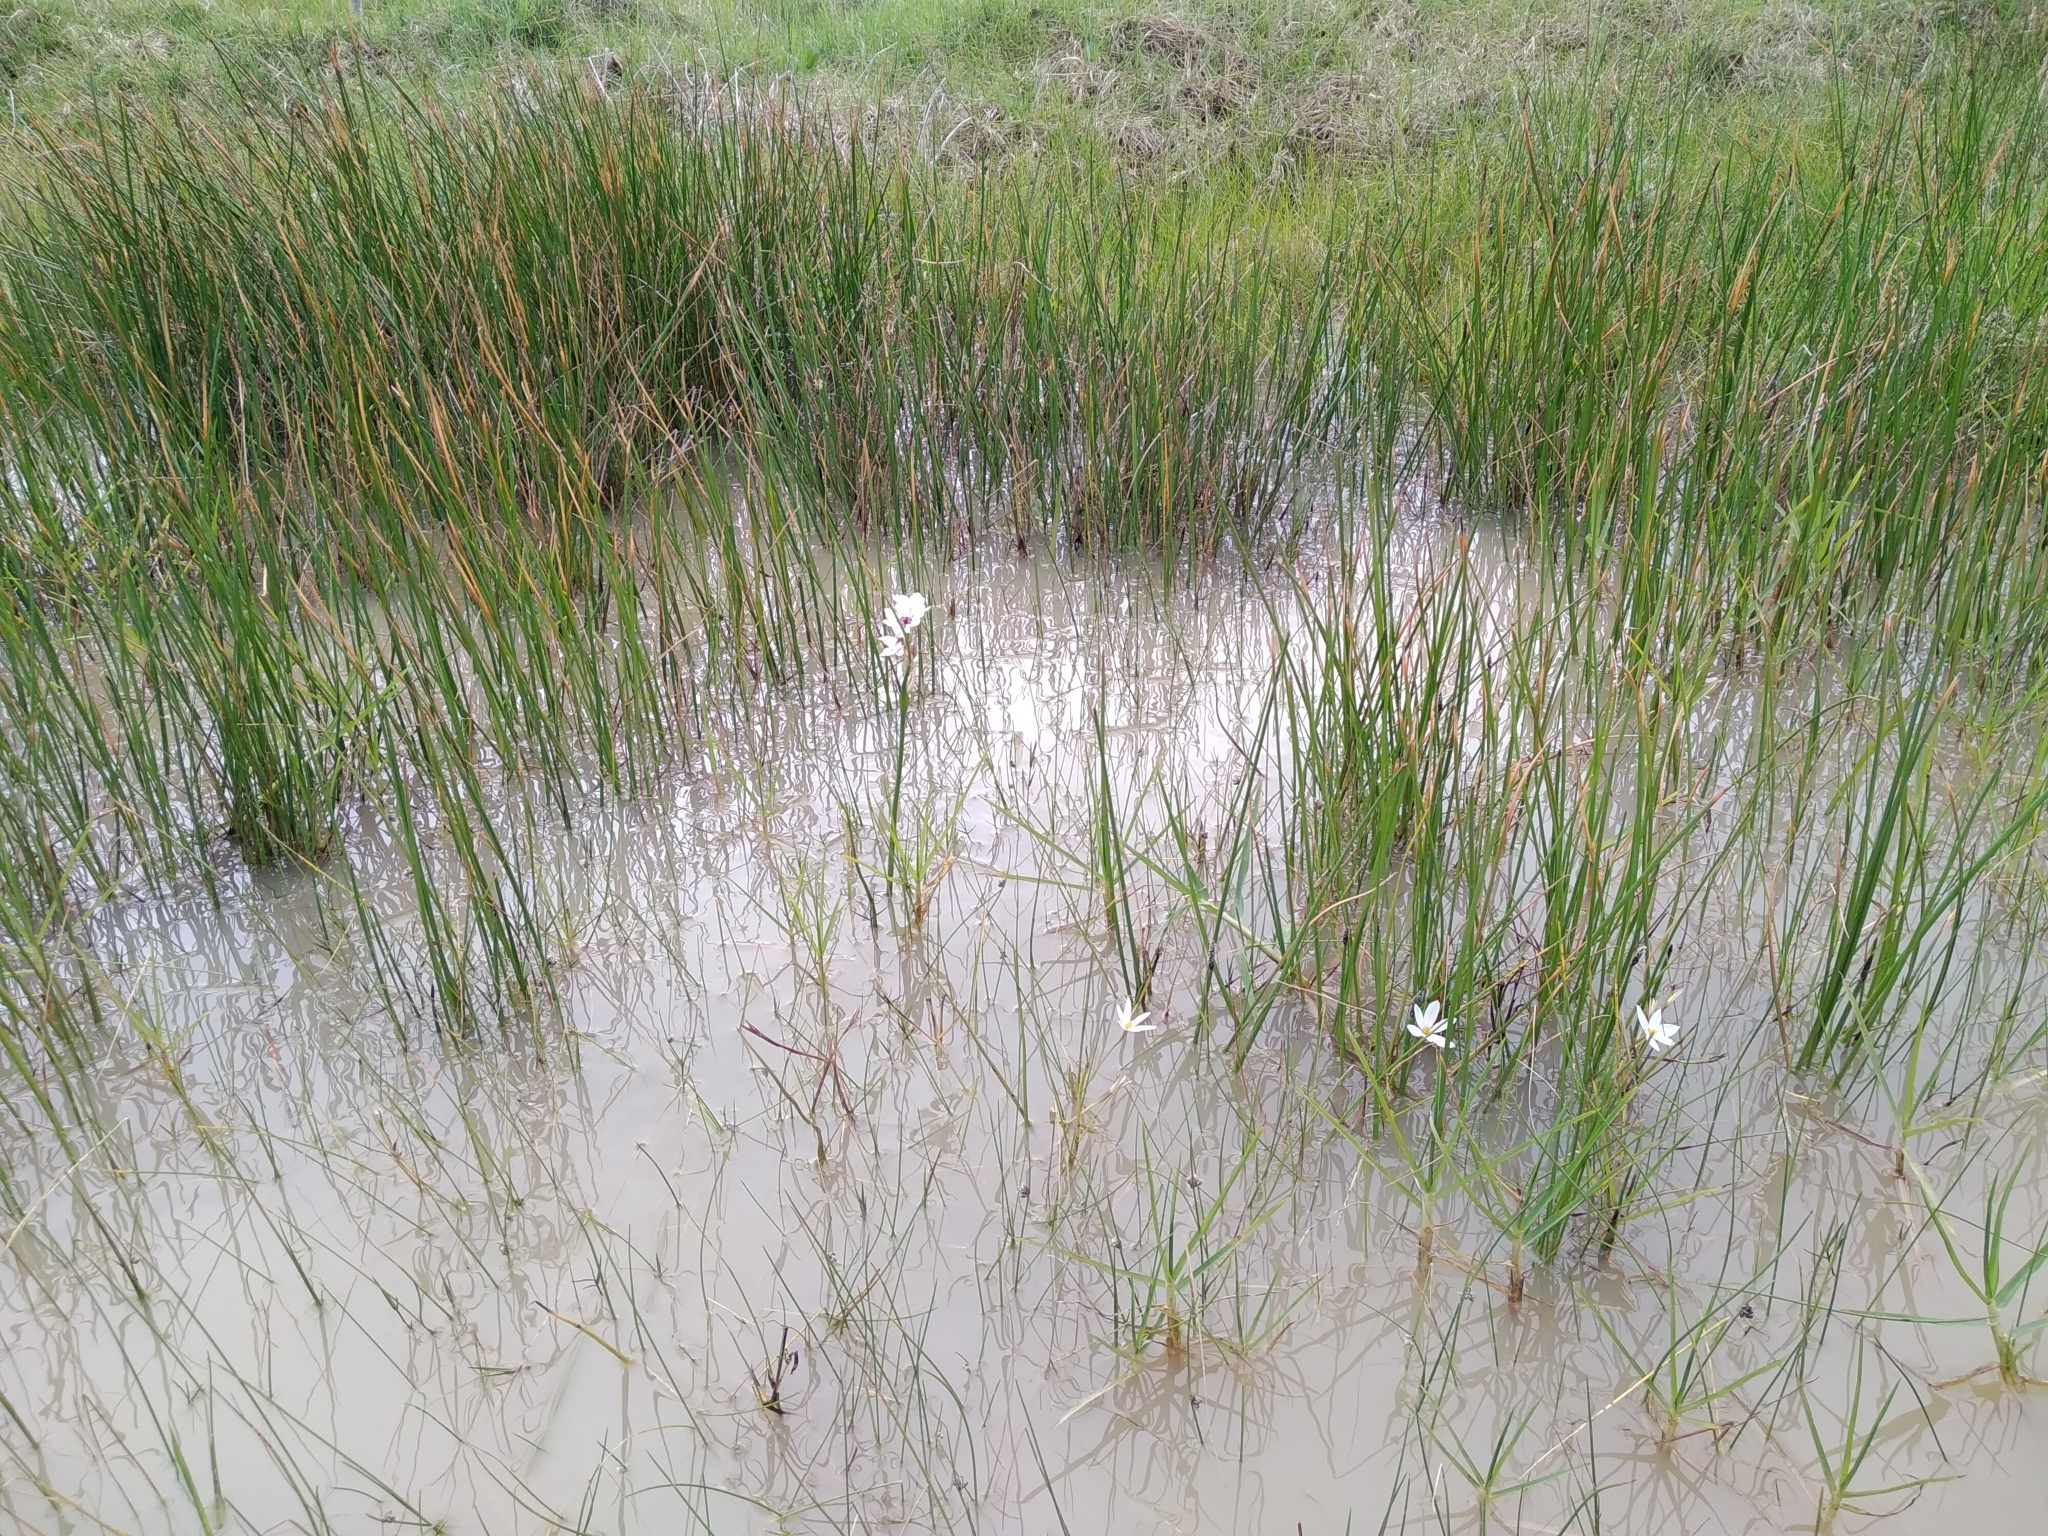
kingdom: Plantae
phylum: Tracheophyta
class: Liliopsida
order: Liliales
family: Colchicaceae
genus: Wurmbea
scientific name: Wurmbea stricta
